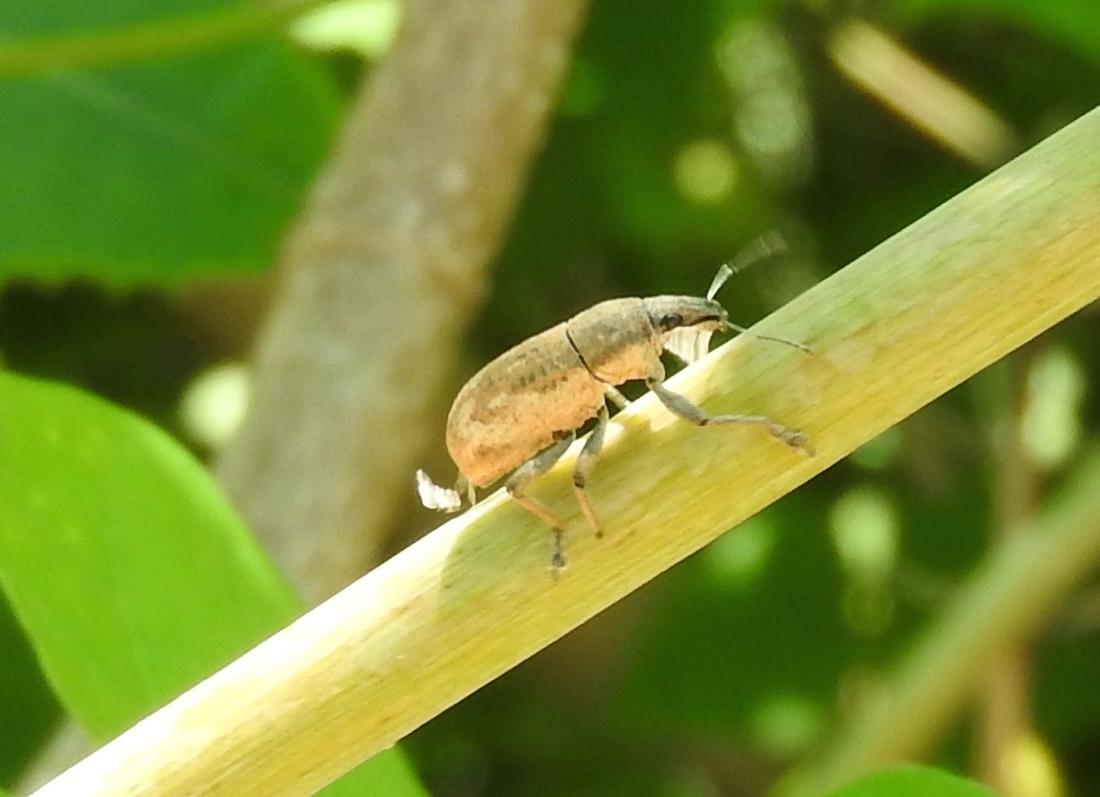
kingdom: Animalia
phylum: Arthropoda
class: Insecta
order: Coleoptera
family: Curculionidae
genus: Epicaerus
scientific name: Epicaerus
